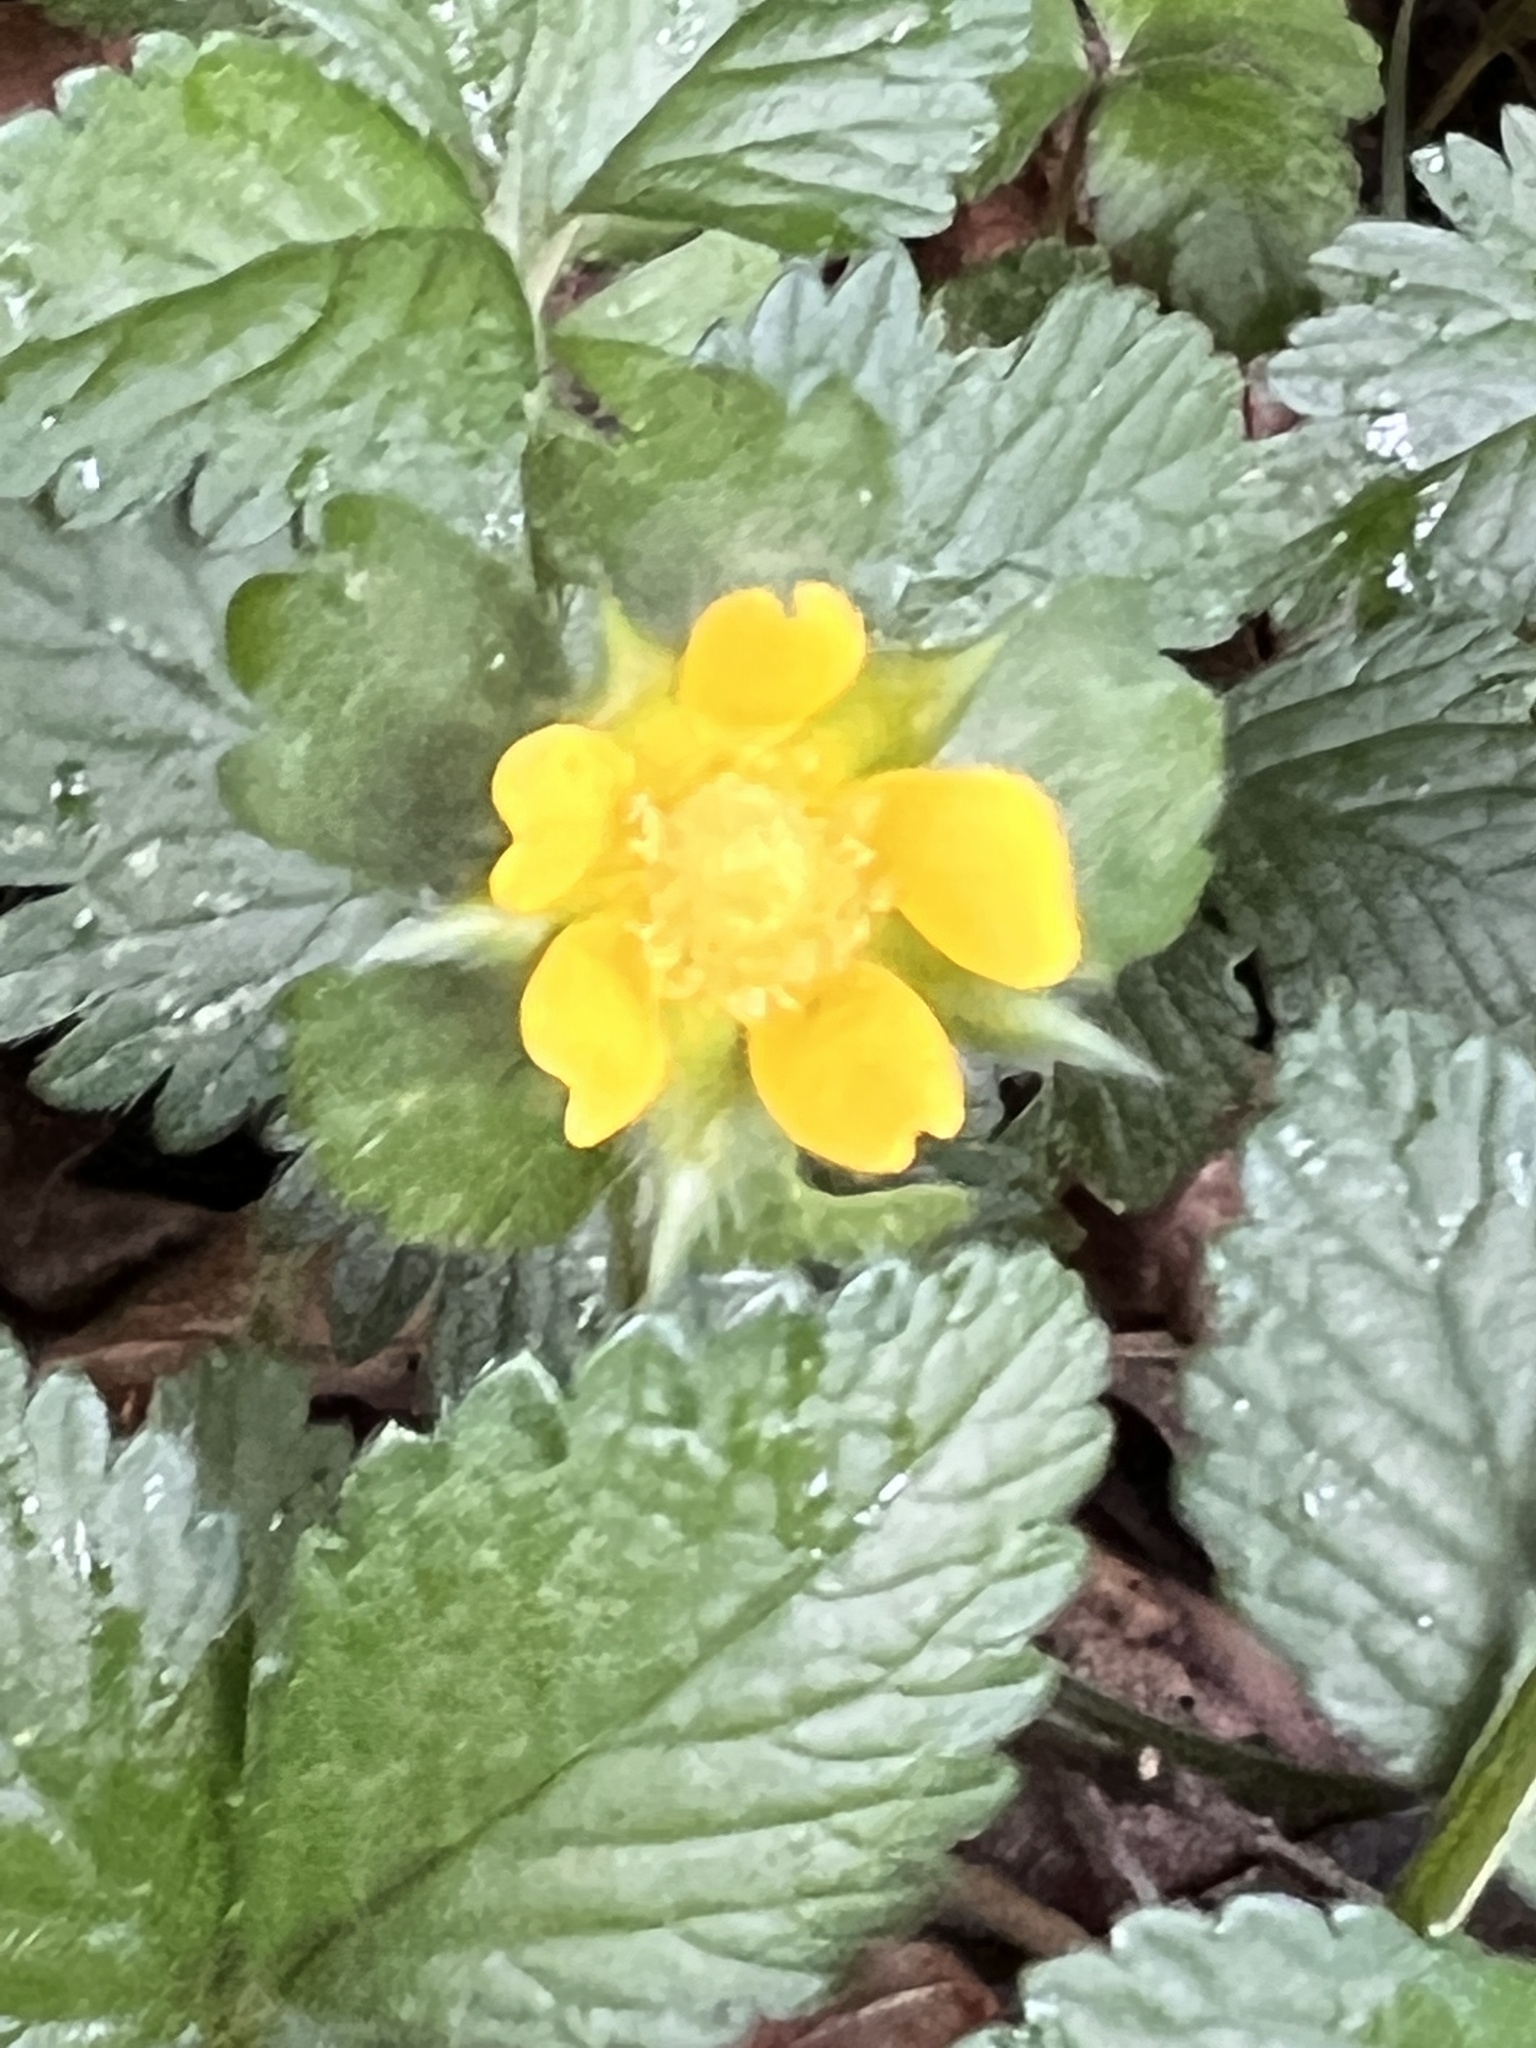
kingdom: Plantae
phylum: Tracheophyta
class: Magnoliopsida
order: Rosales
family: Rosaceae
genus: Potentilla
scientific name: Potentilla indica
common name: Yellow-flowered strawberry
